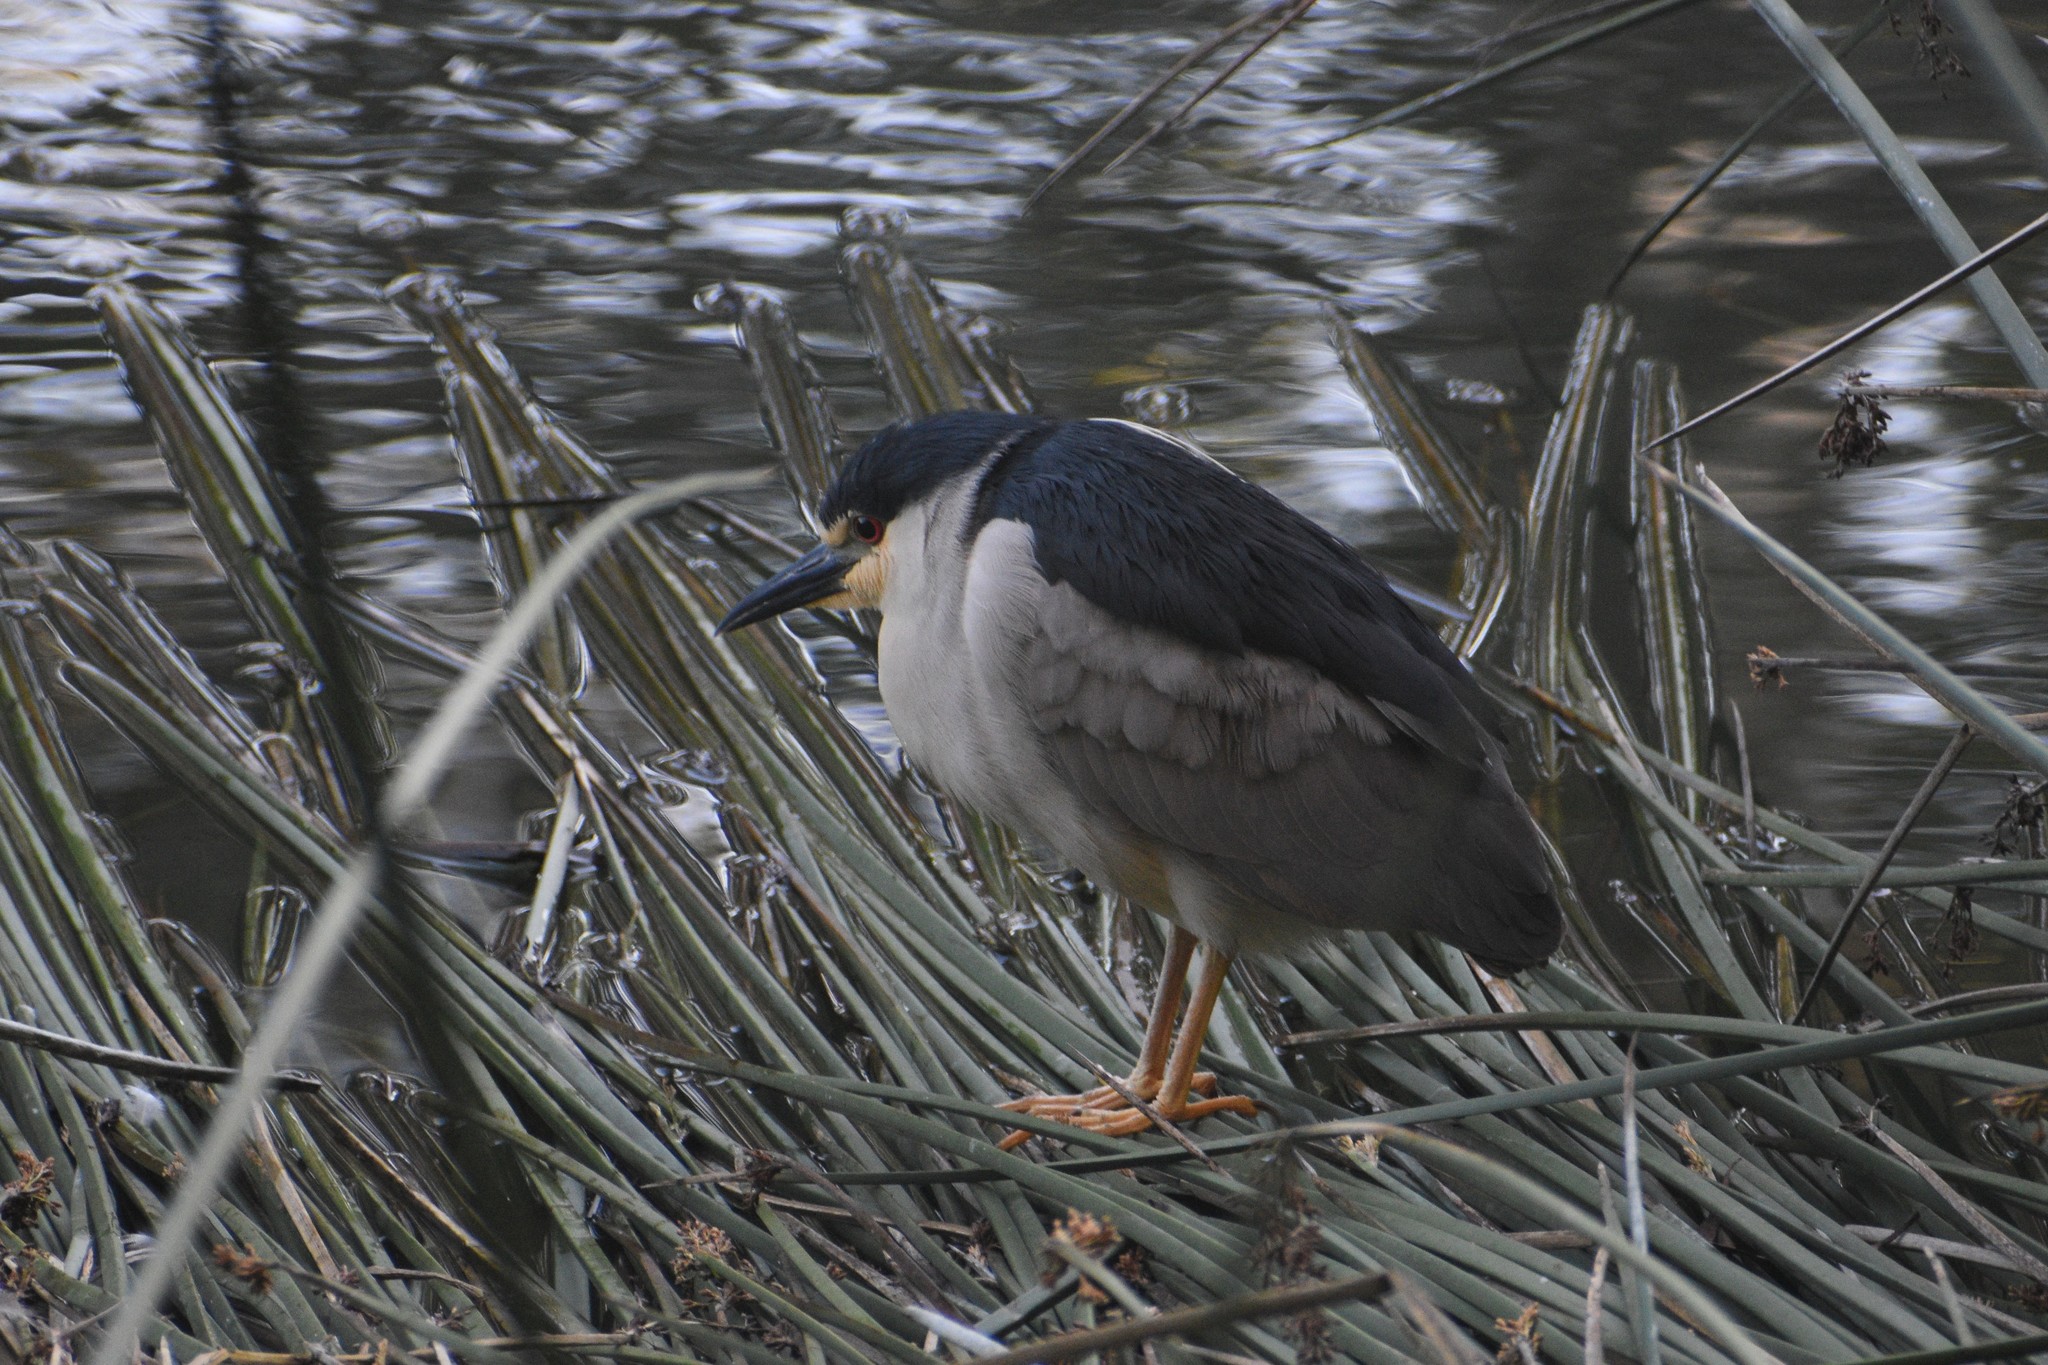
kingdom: Animalia
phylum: Chordata
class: Aves
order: Pelecaniformes
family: Ardeidae
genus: Nycticorax
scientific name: Nycticorax nycticorax
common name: Black-crowned night heron
